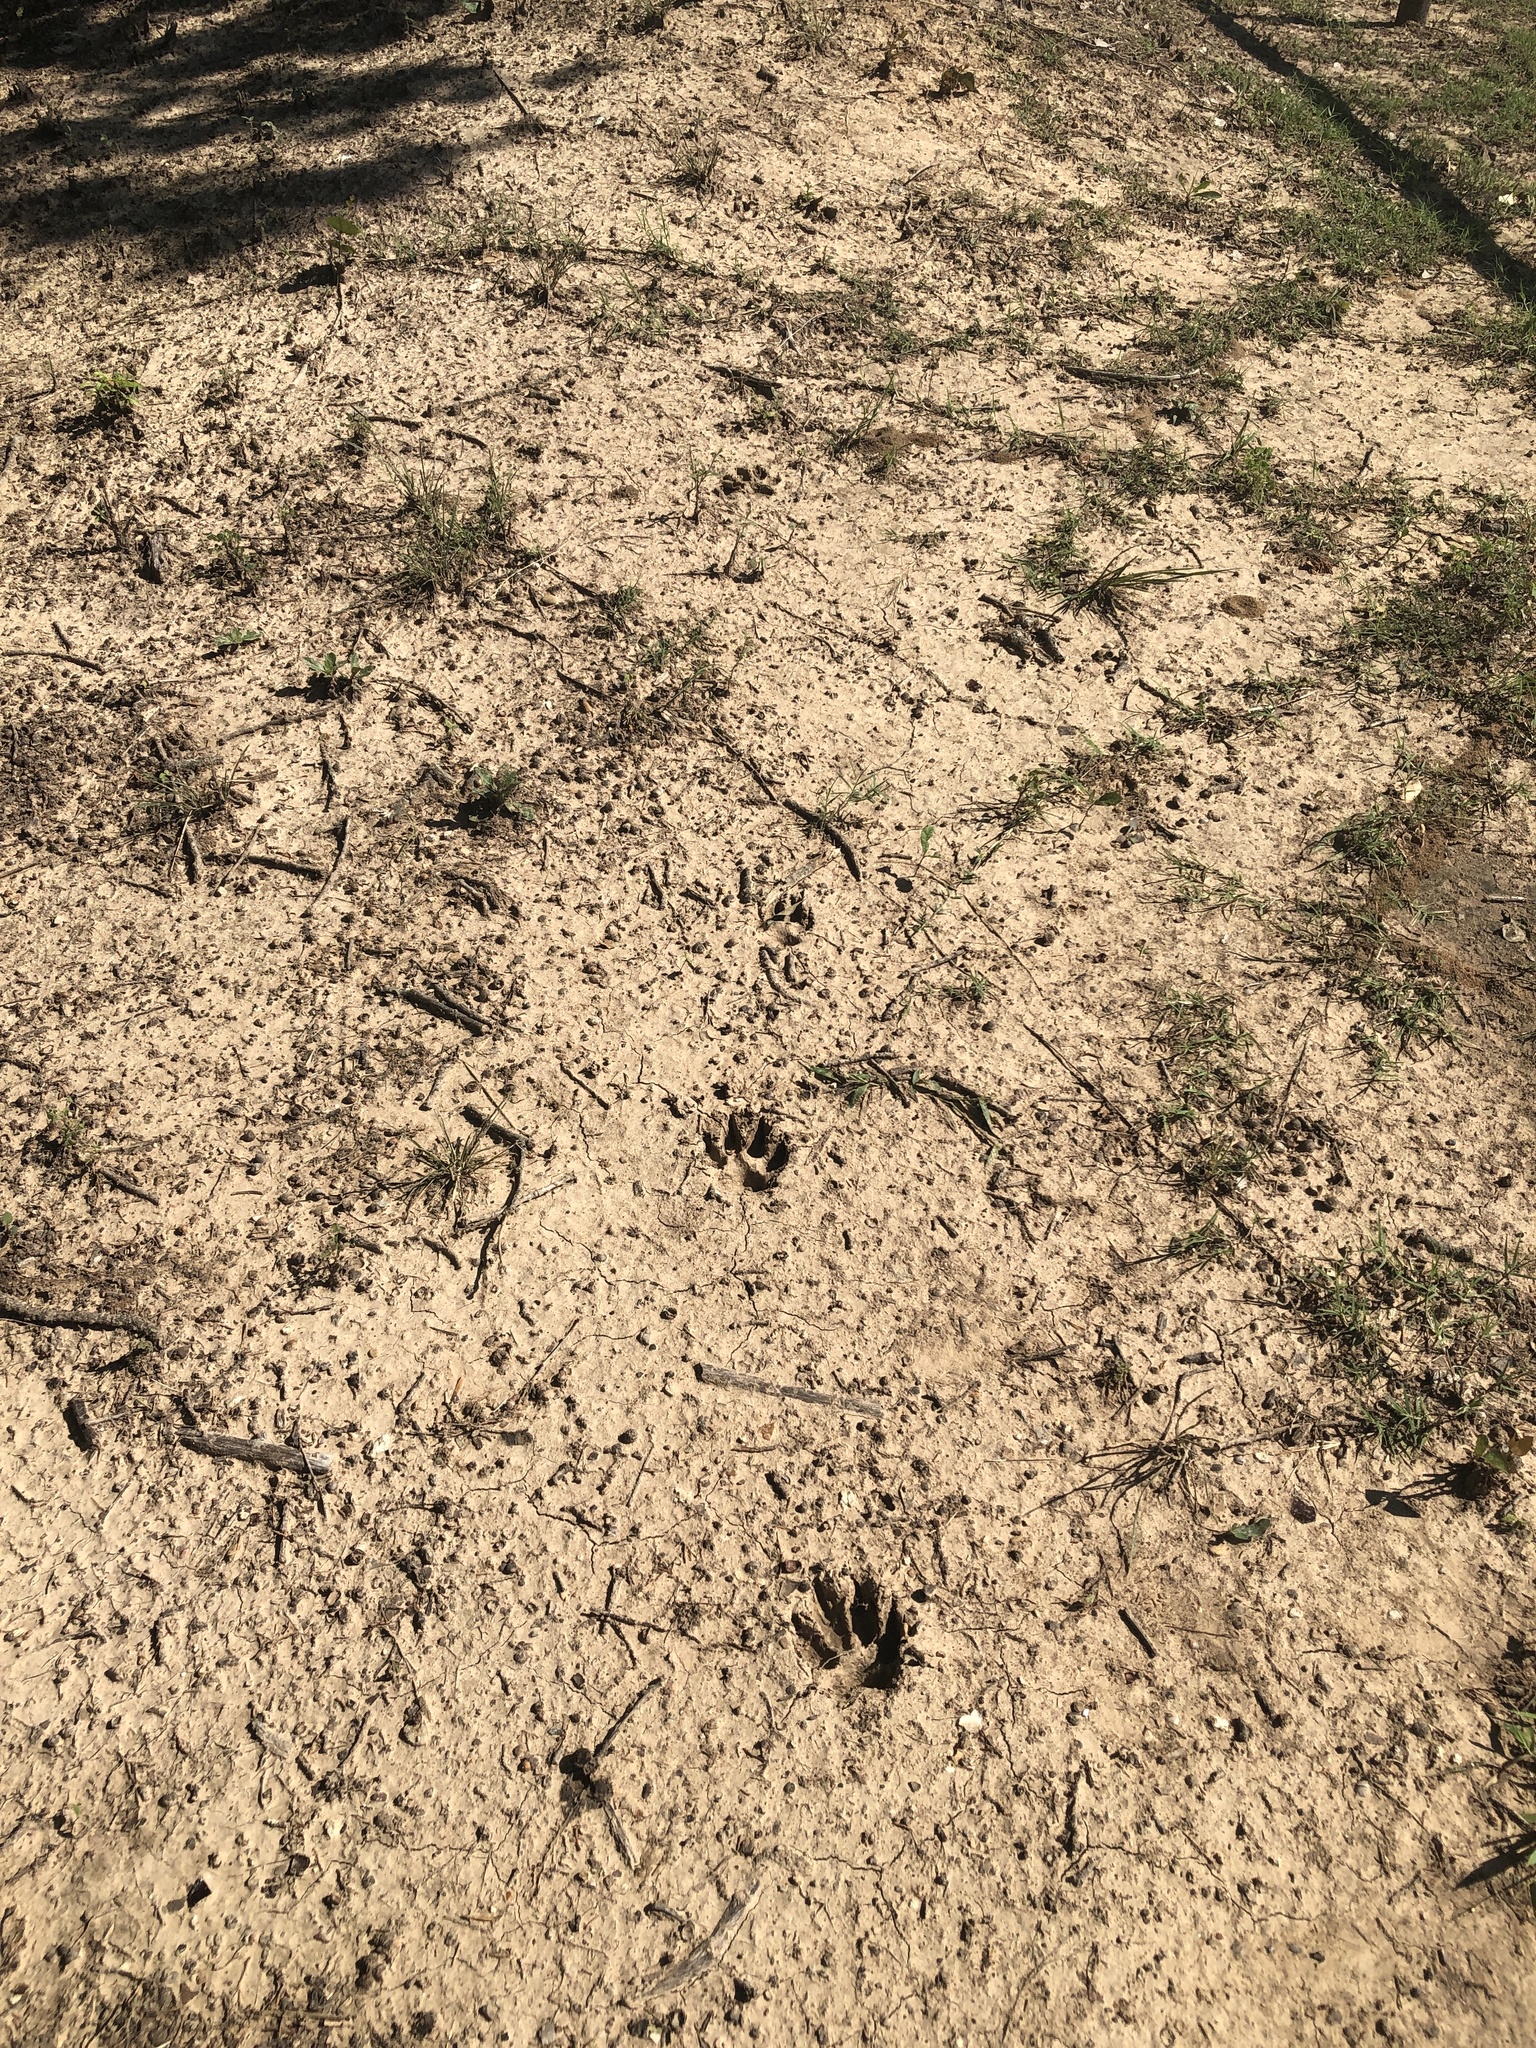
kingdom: Animalia
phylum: Chordata
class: Mammalia
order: Carnivora
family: Canidae
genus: Canis
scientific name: Canis lupus
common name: Gray wolf
